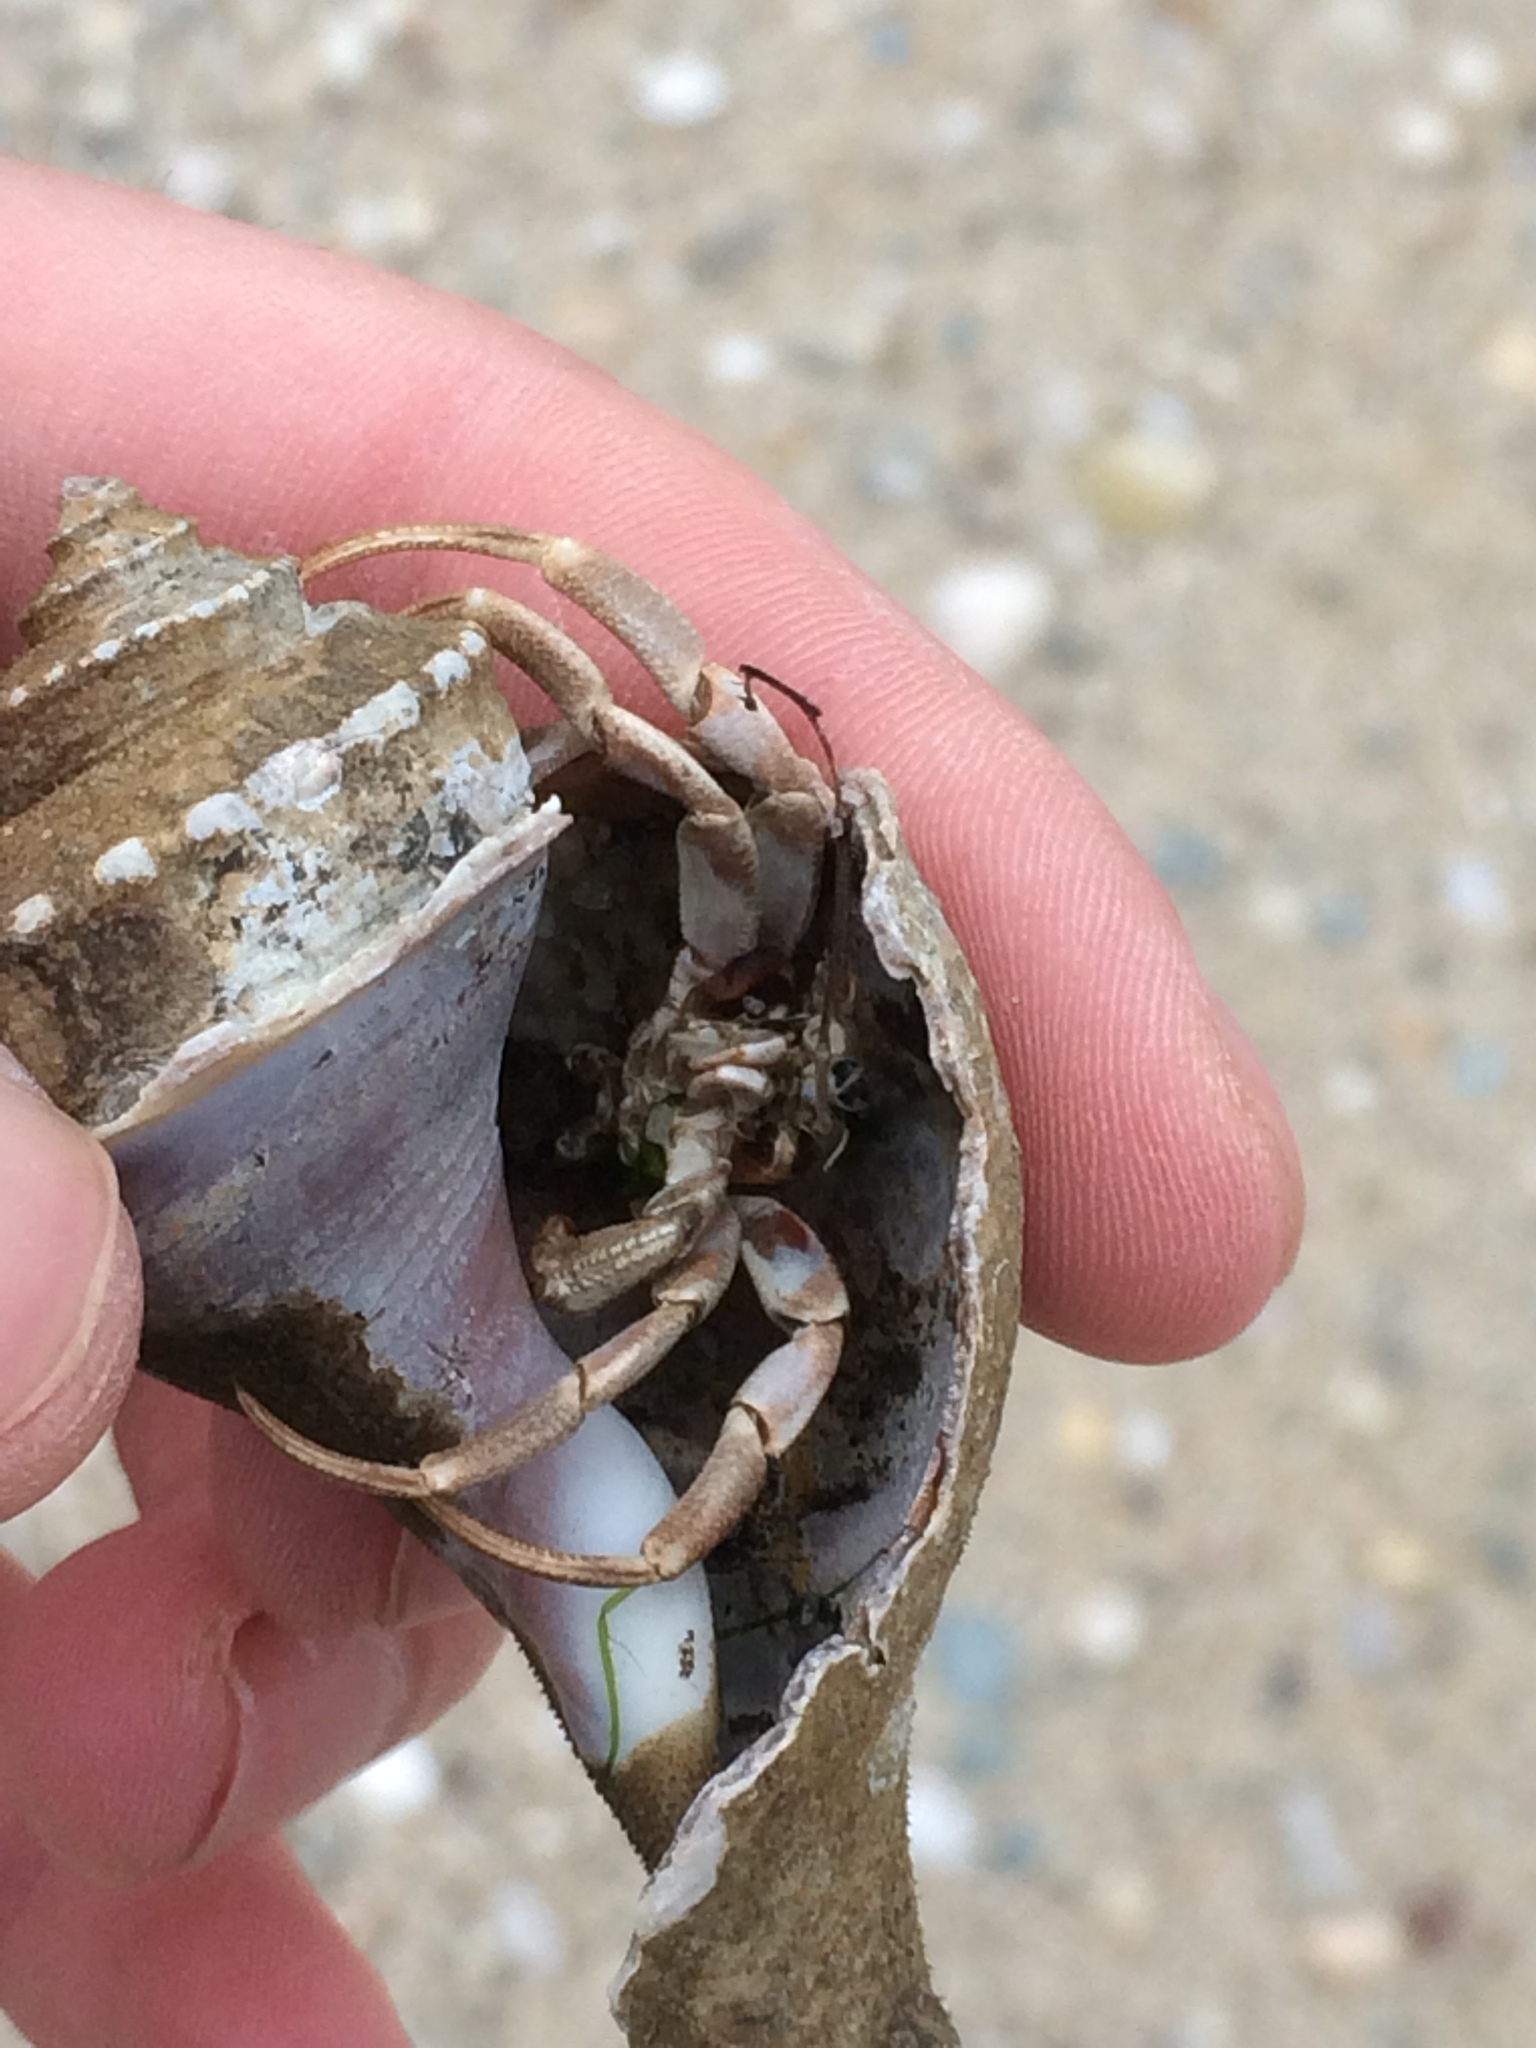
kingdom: Animalia
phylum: Arthropoda
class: Malacostraca
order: Decapoda
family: Paguridae
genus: Pagurus
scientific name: Pagurus longicarpus
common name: Long-armed hermit crab
